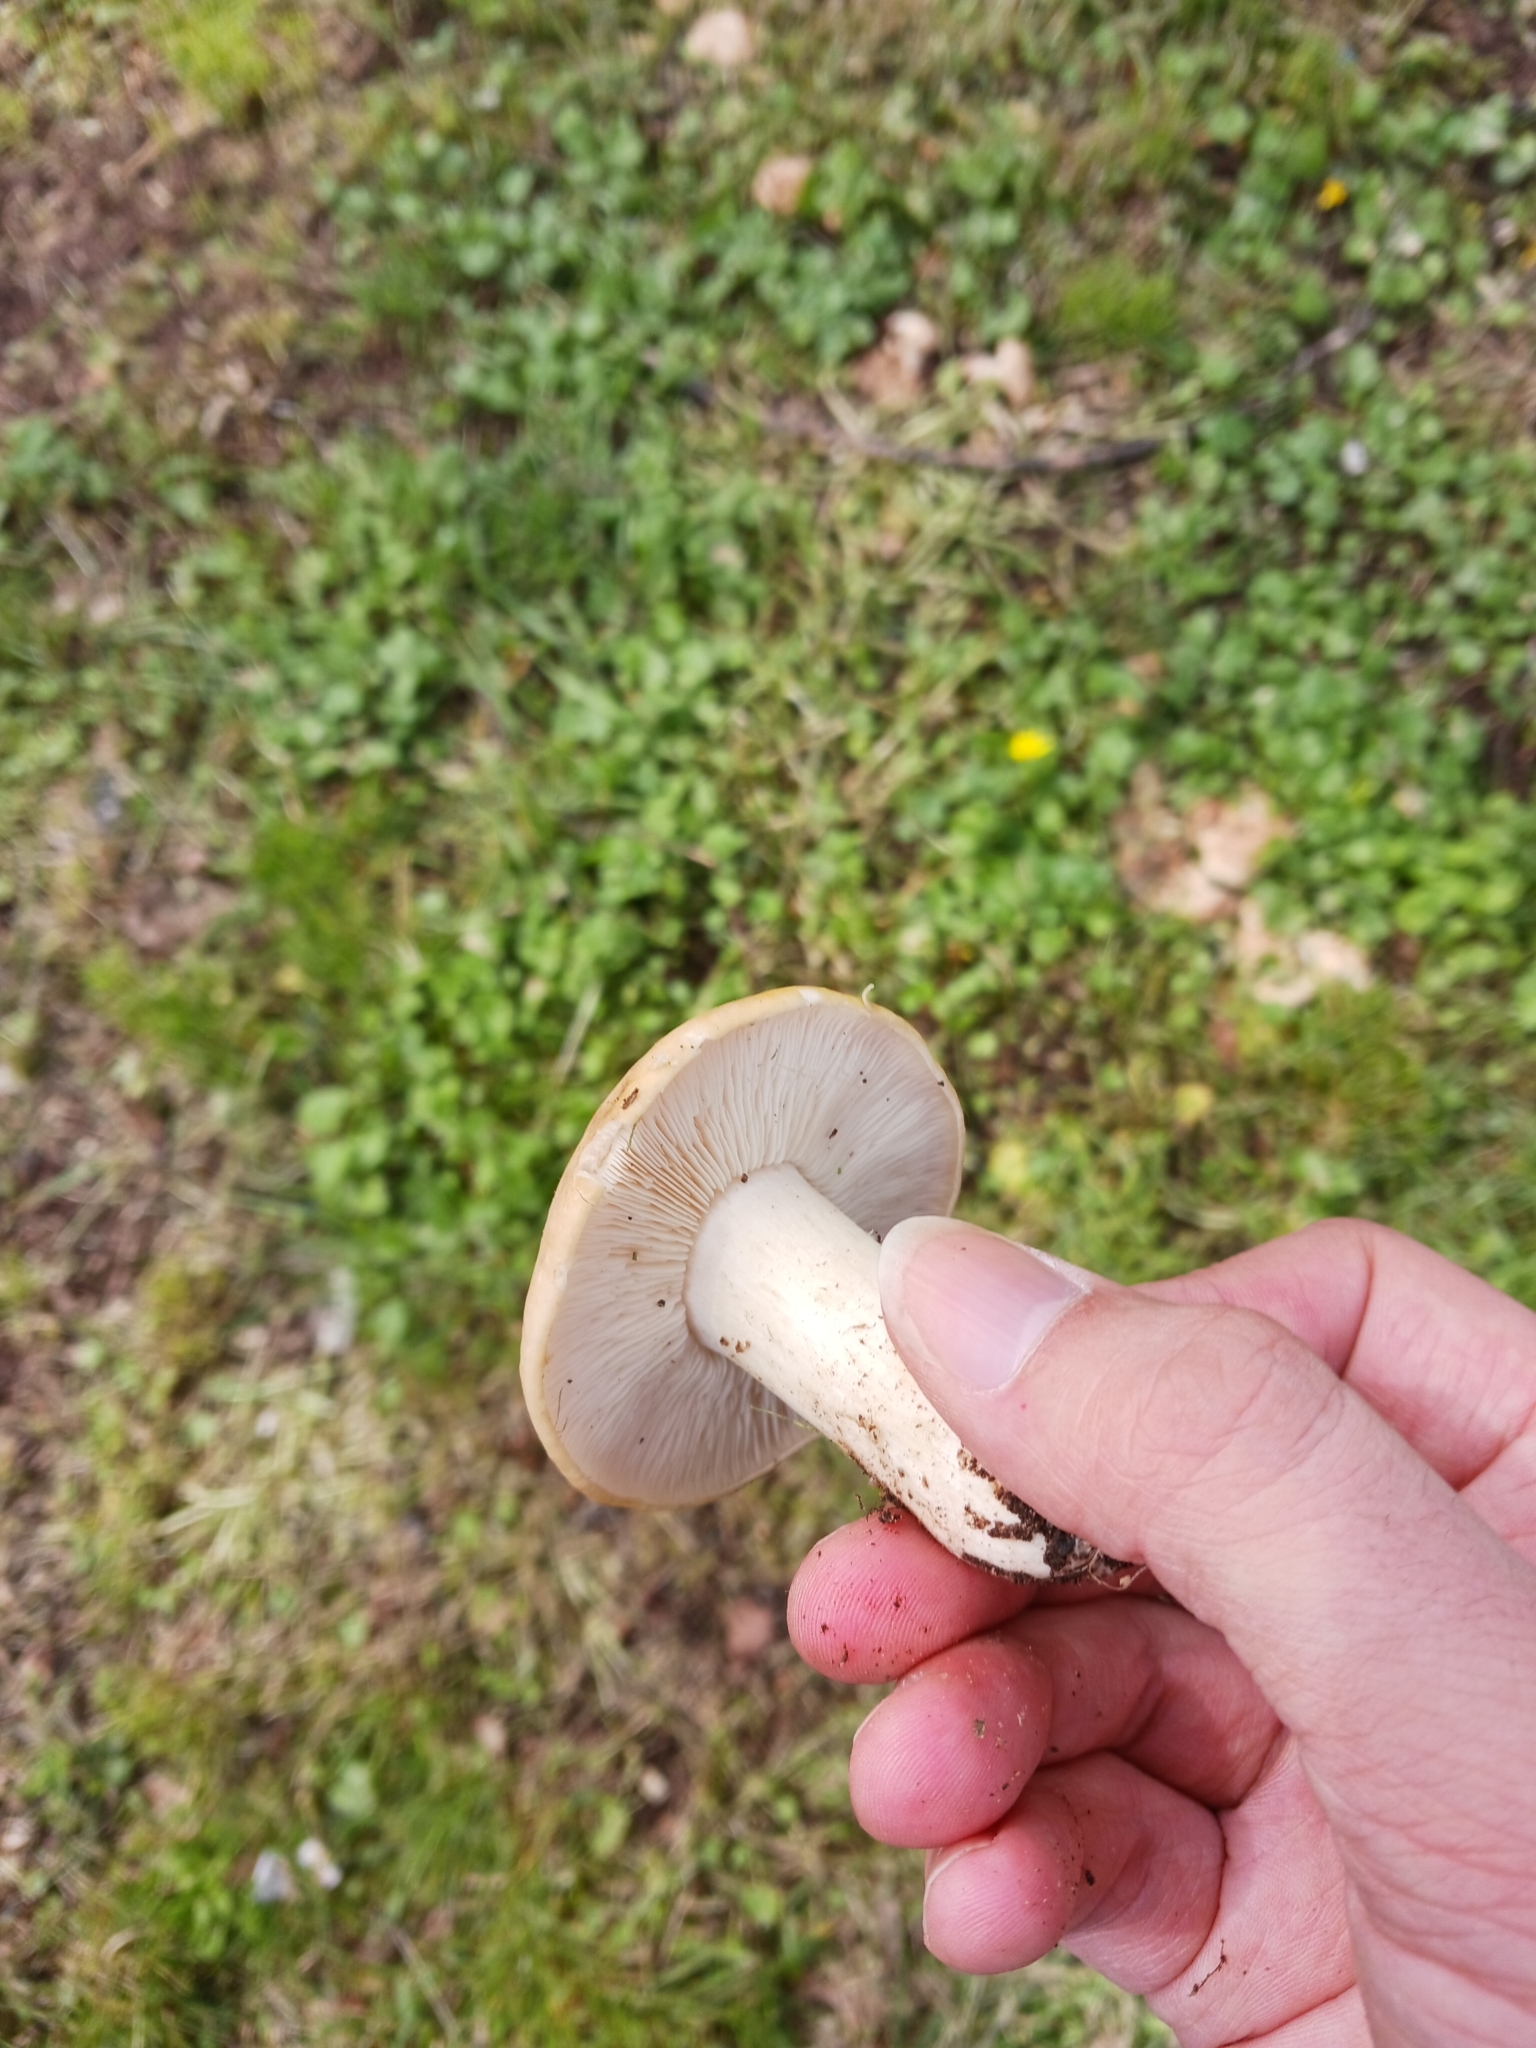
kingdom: Fungi
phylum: Basidiomycota
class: Agaricomycetes
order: Agaricales
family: Lyophyllaceae
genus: Calocybe
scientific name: Calocybe gambosa
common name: St. george's mushroom
